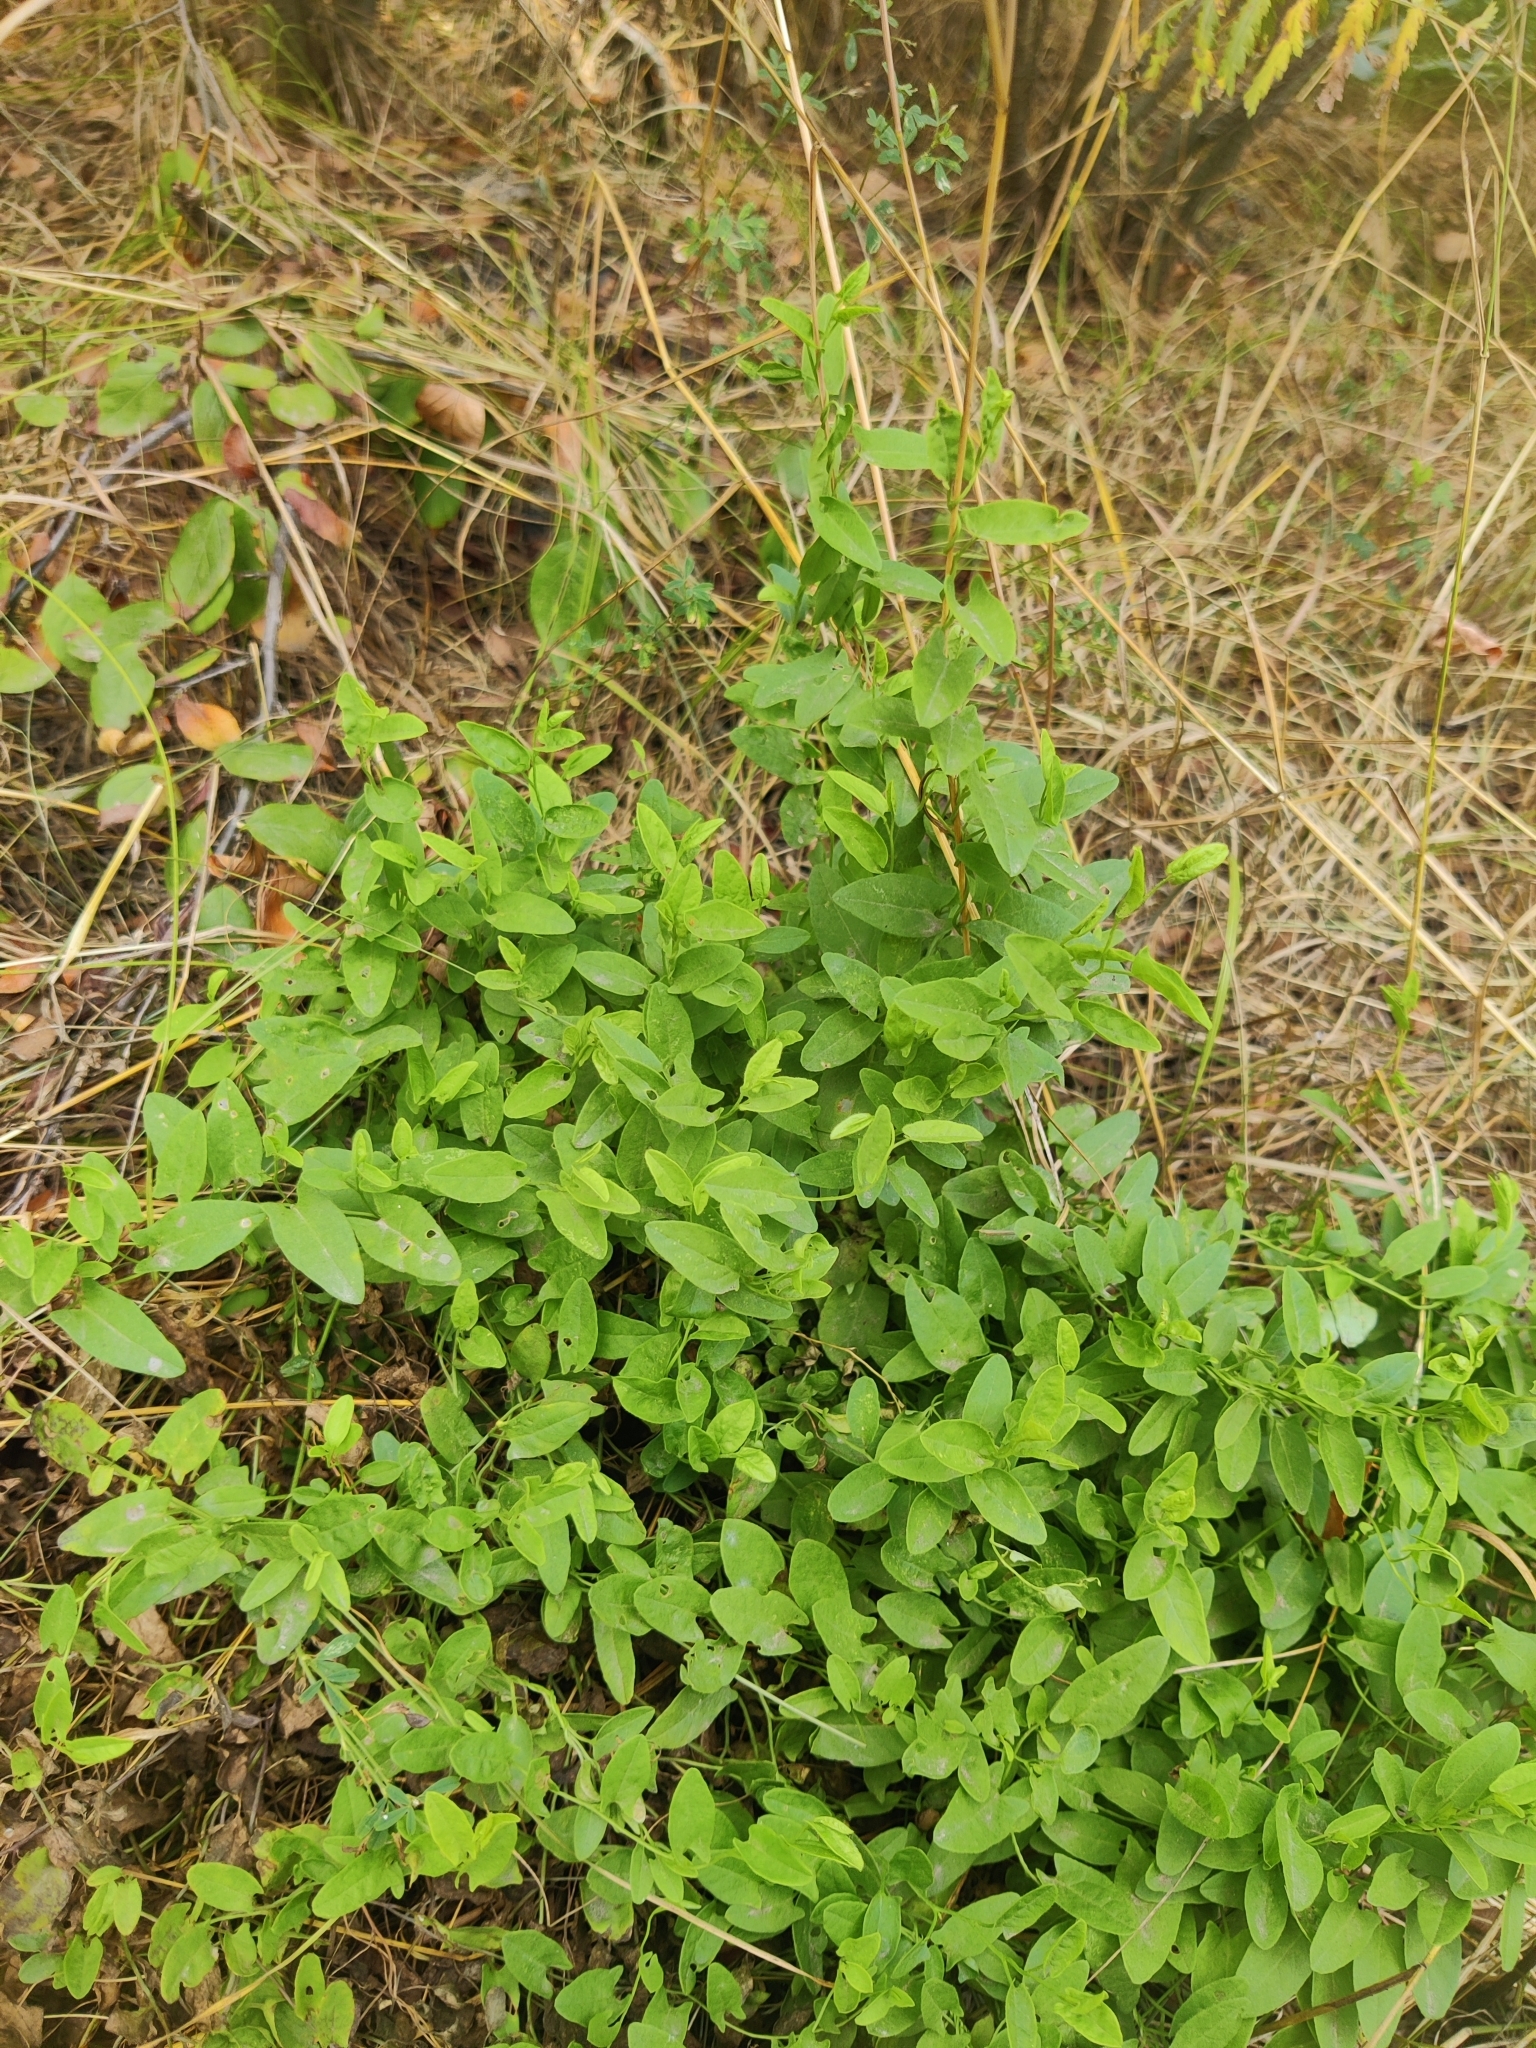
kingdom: Plantae
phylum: Tracheophyta
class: Magnoliopsida
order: Solanales
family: Convolvulaceae
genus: Convolvulus
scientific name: Convolvulus arvensis
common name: Field bindweed
